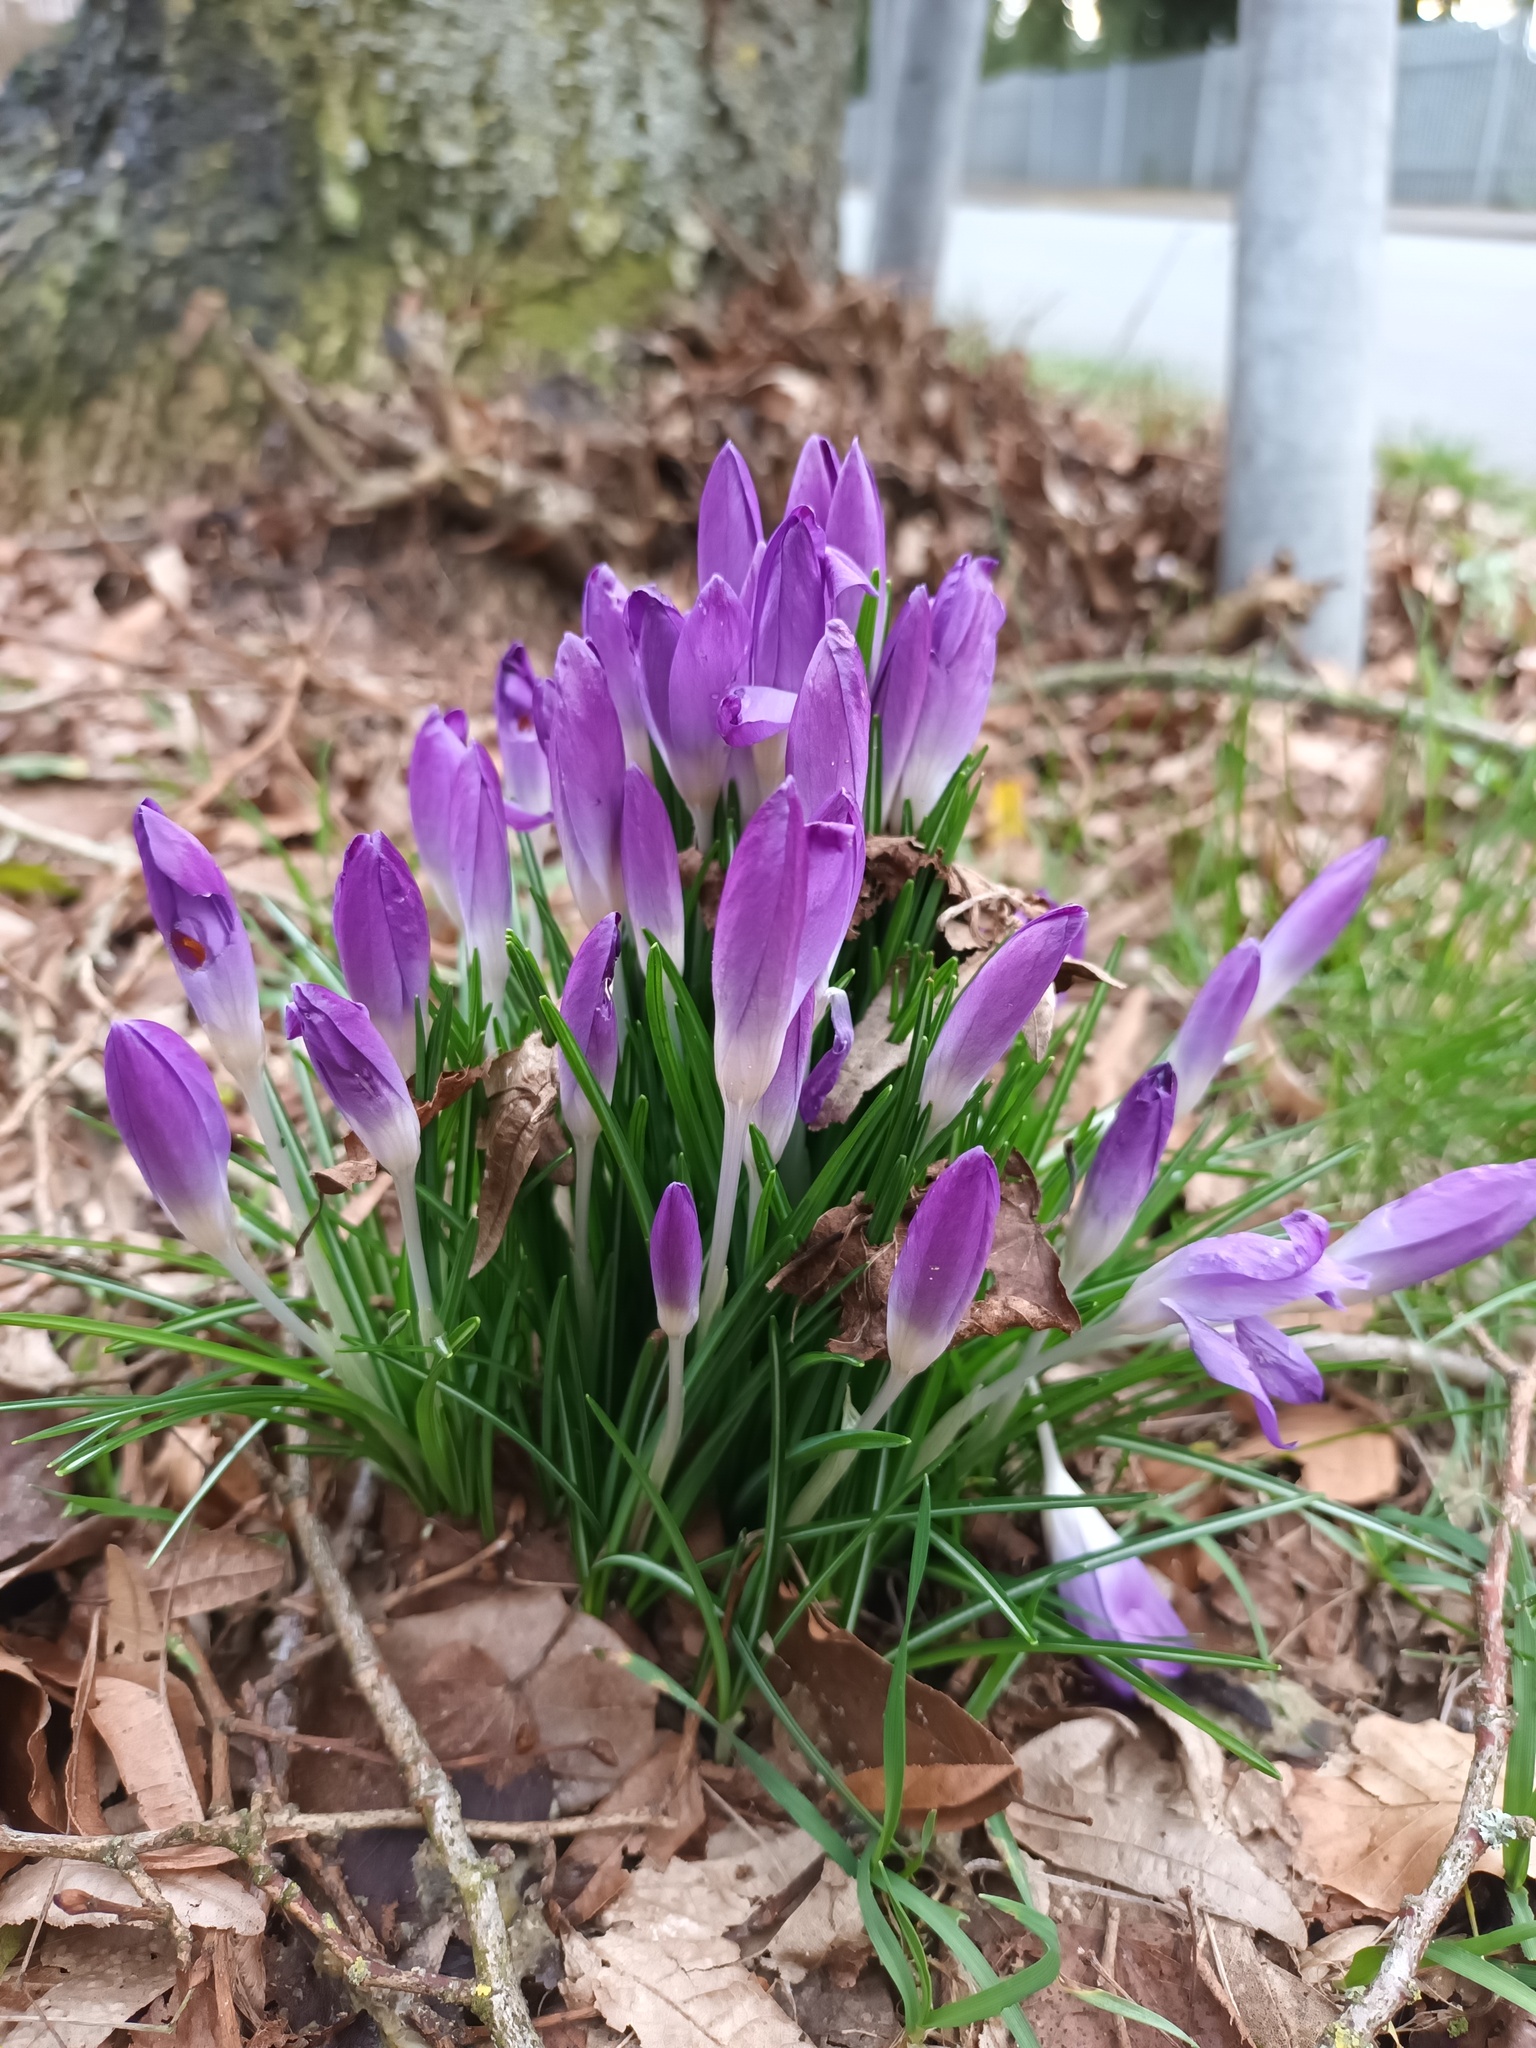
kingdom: Plantae
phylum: Tracheophyta
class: Liliopsida
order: Asparagales
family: Iridaceae
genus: Crocus
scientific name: Crocus tommasinianus
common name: Early crocus
